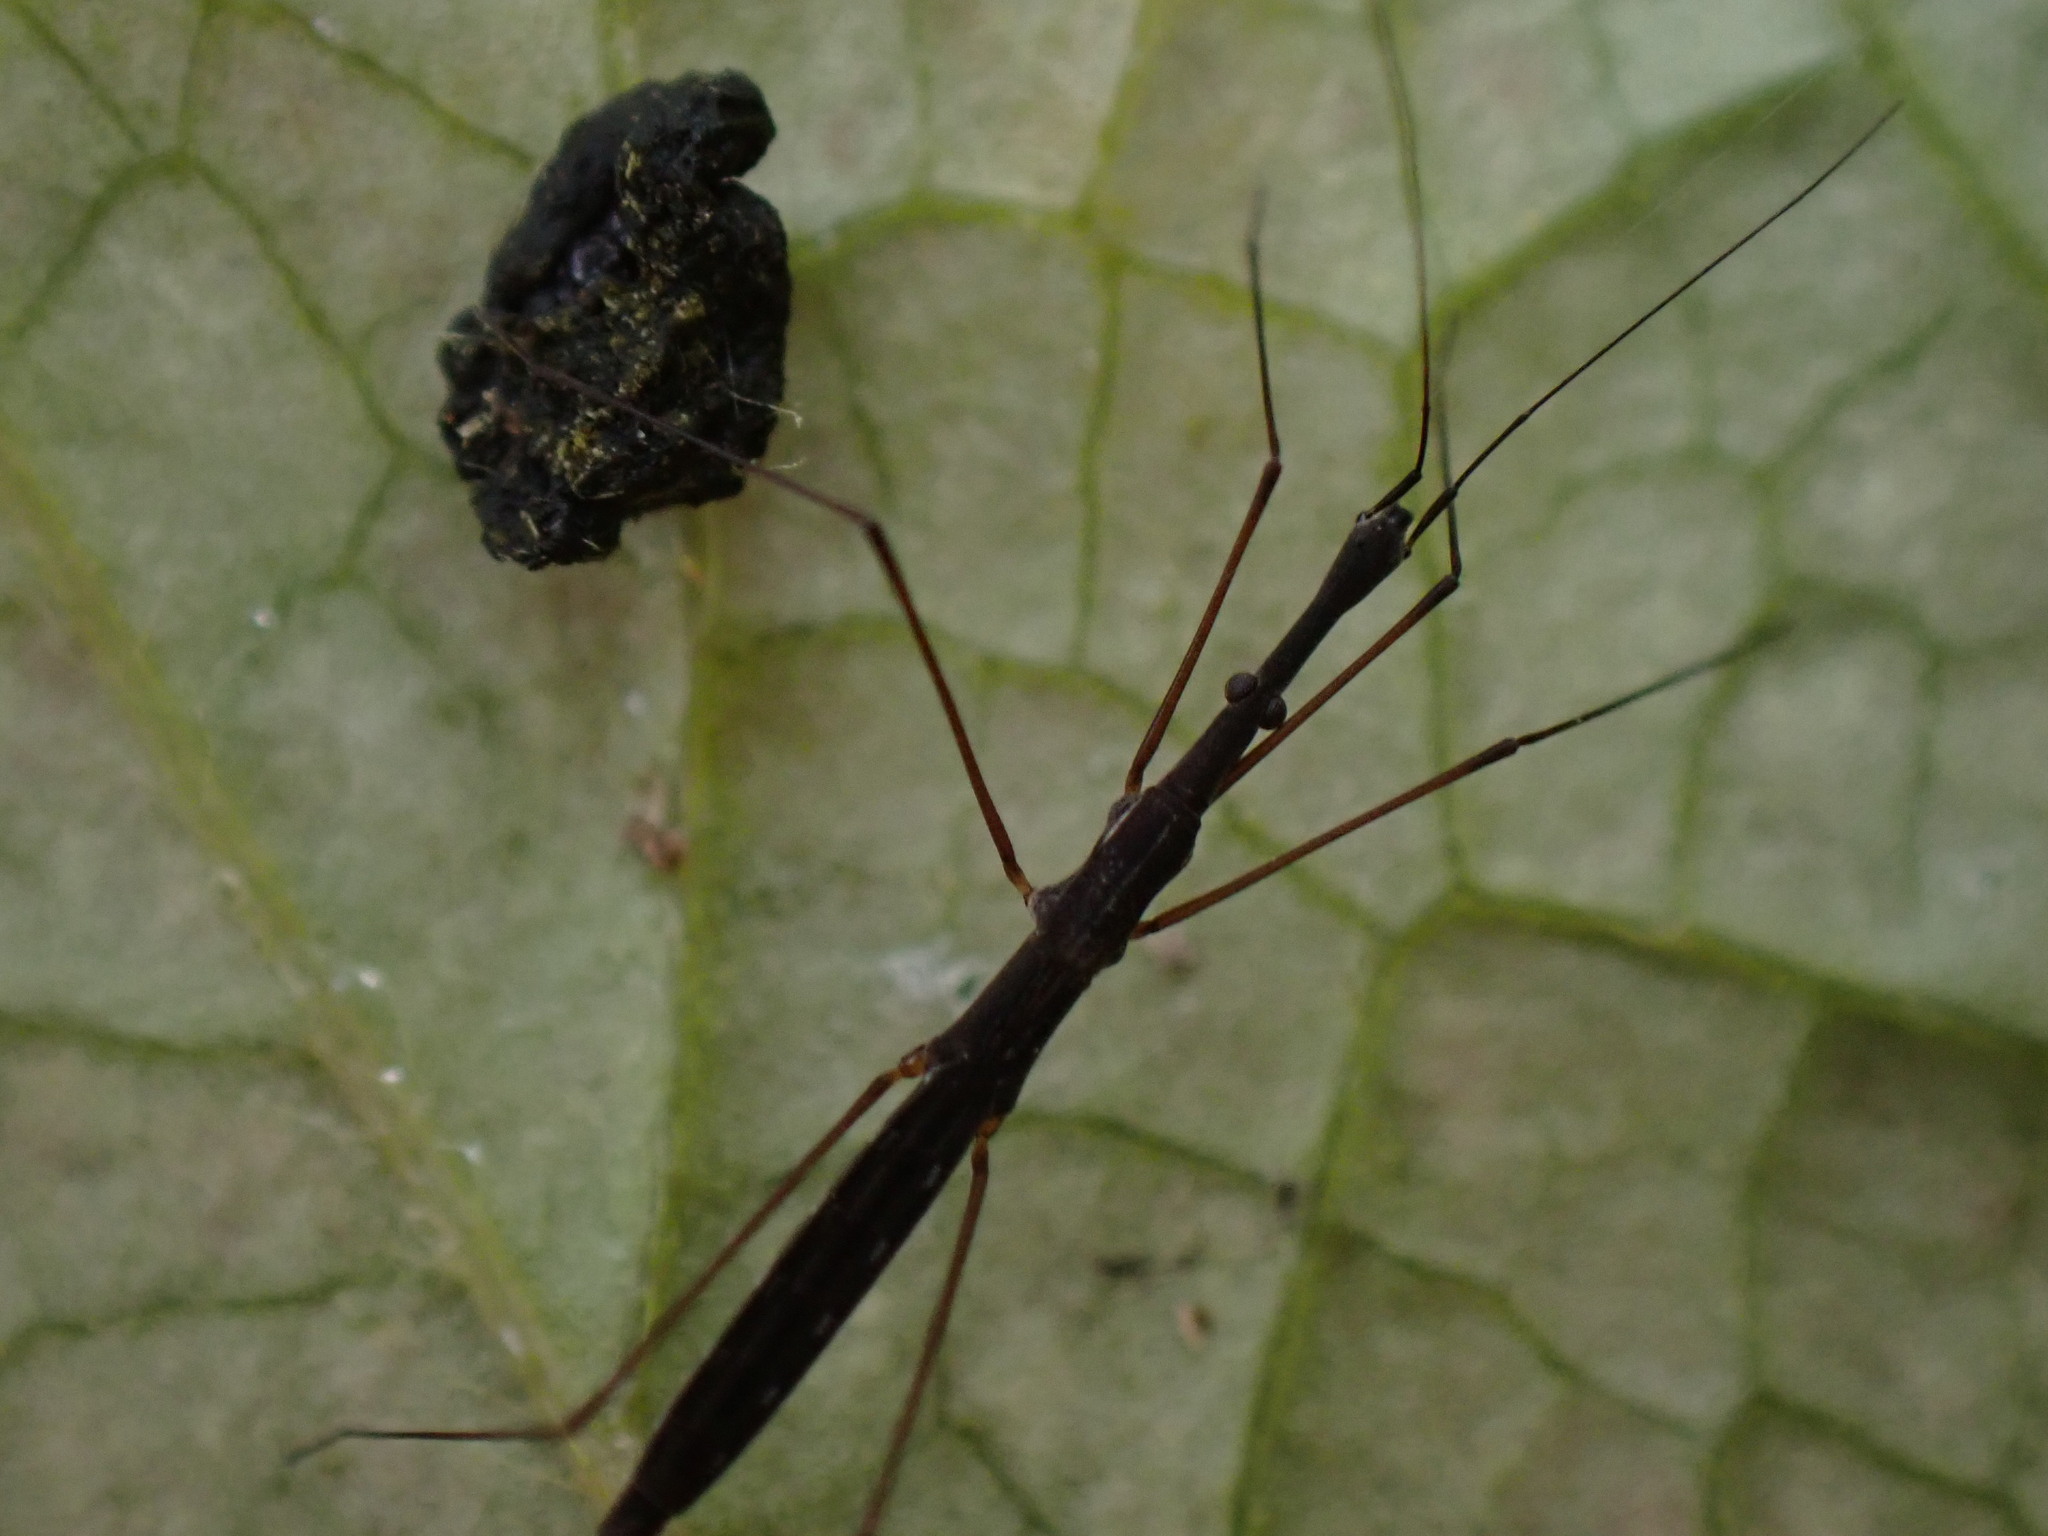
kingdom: Animalia
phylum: Arthropoda
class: Insecta
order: Hemiptera
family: Hydrometridae
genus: Hydrometra
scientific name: Hydrometra stagnorum
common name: Water measurer
